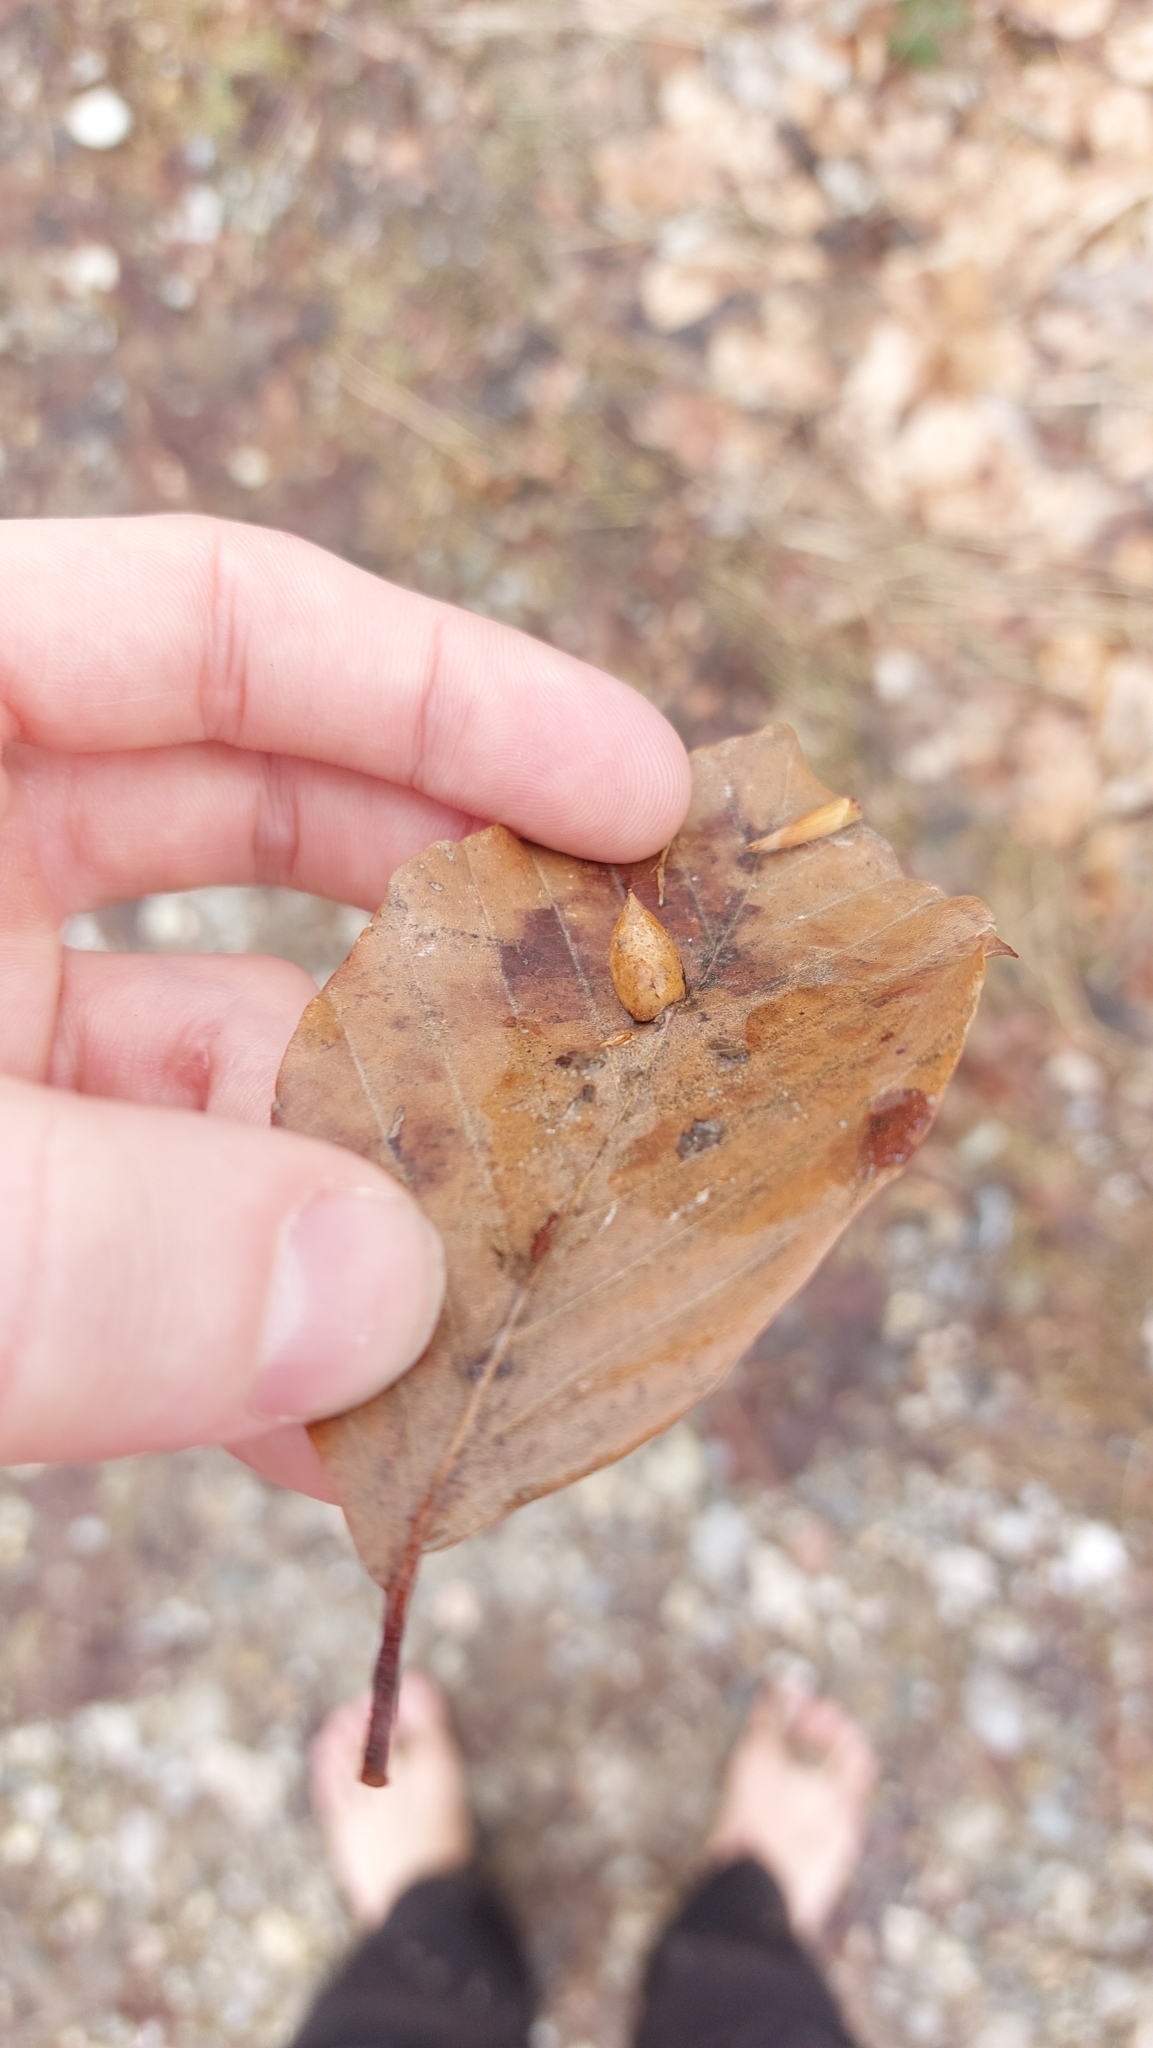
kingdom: Animalia
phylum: Arthropoda
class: Insecta
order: Diptera
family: Cecidomyiidae
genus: Mikiola
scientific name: Mikiola fagi
